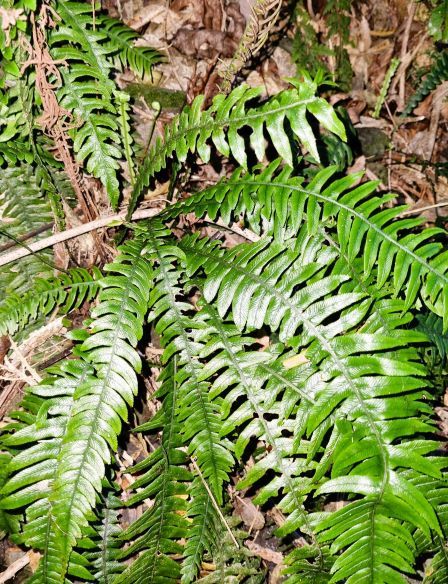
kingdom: Plantae
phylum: Tracheophyta
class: Polypodiopsida
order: Polypodiales
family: Blechnaceae
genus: Austroblechnum
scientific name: Austroblechnum lanceolatum
